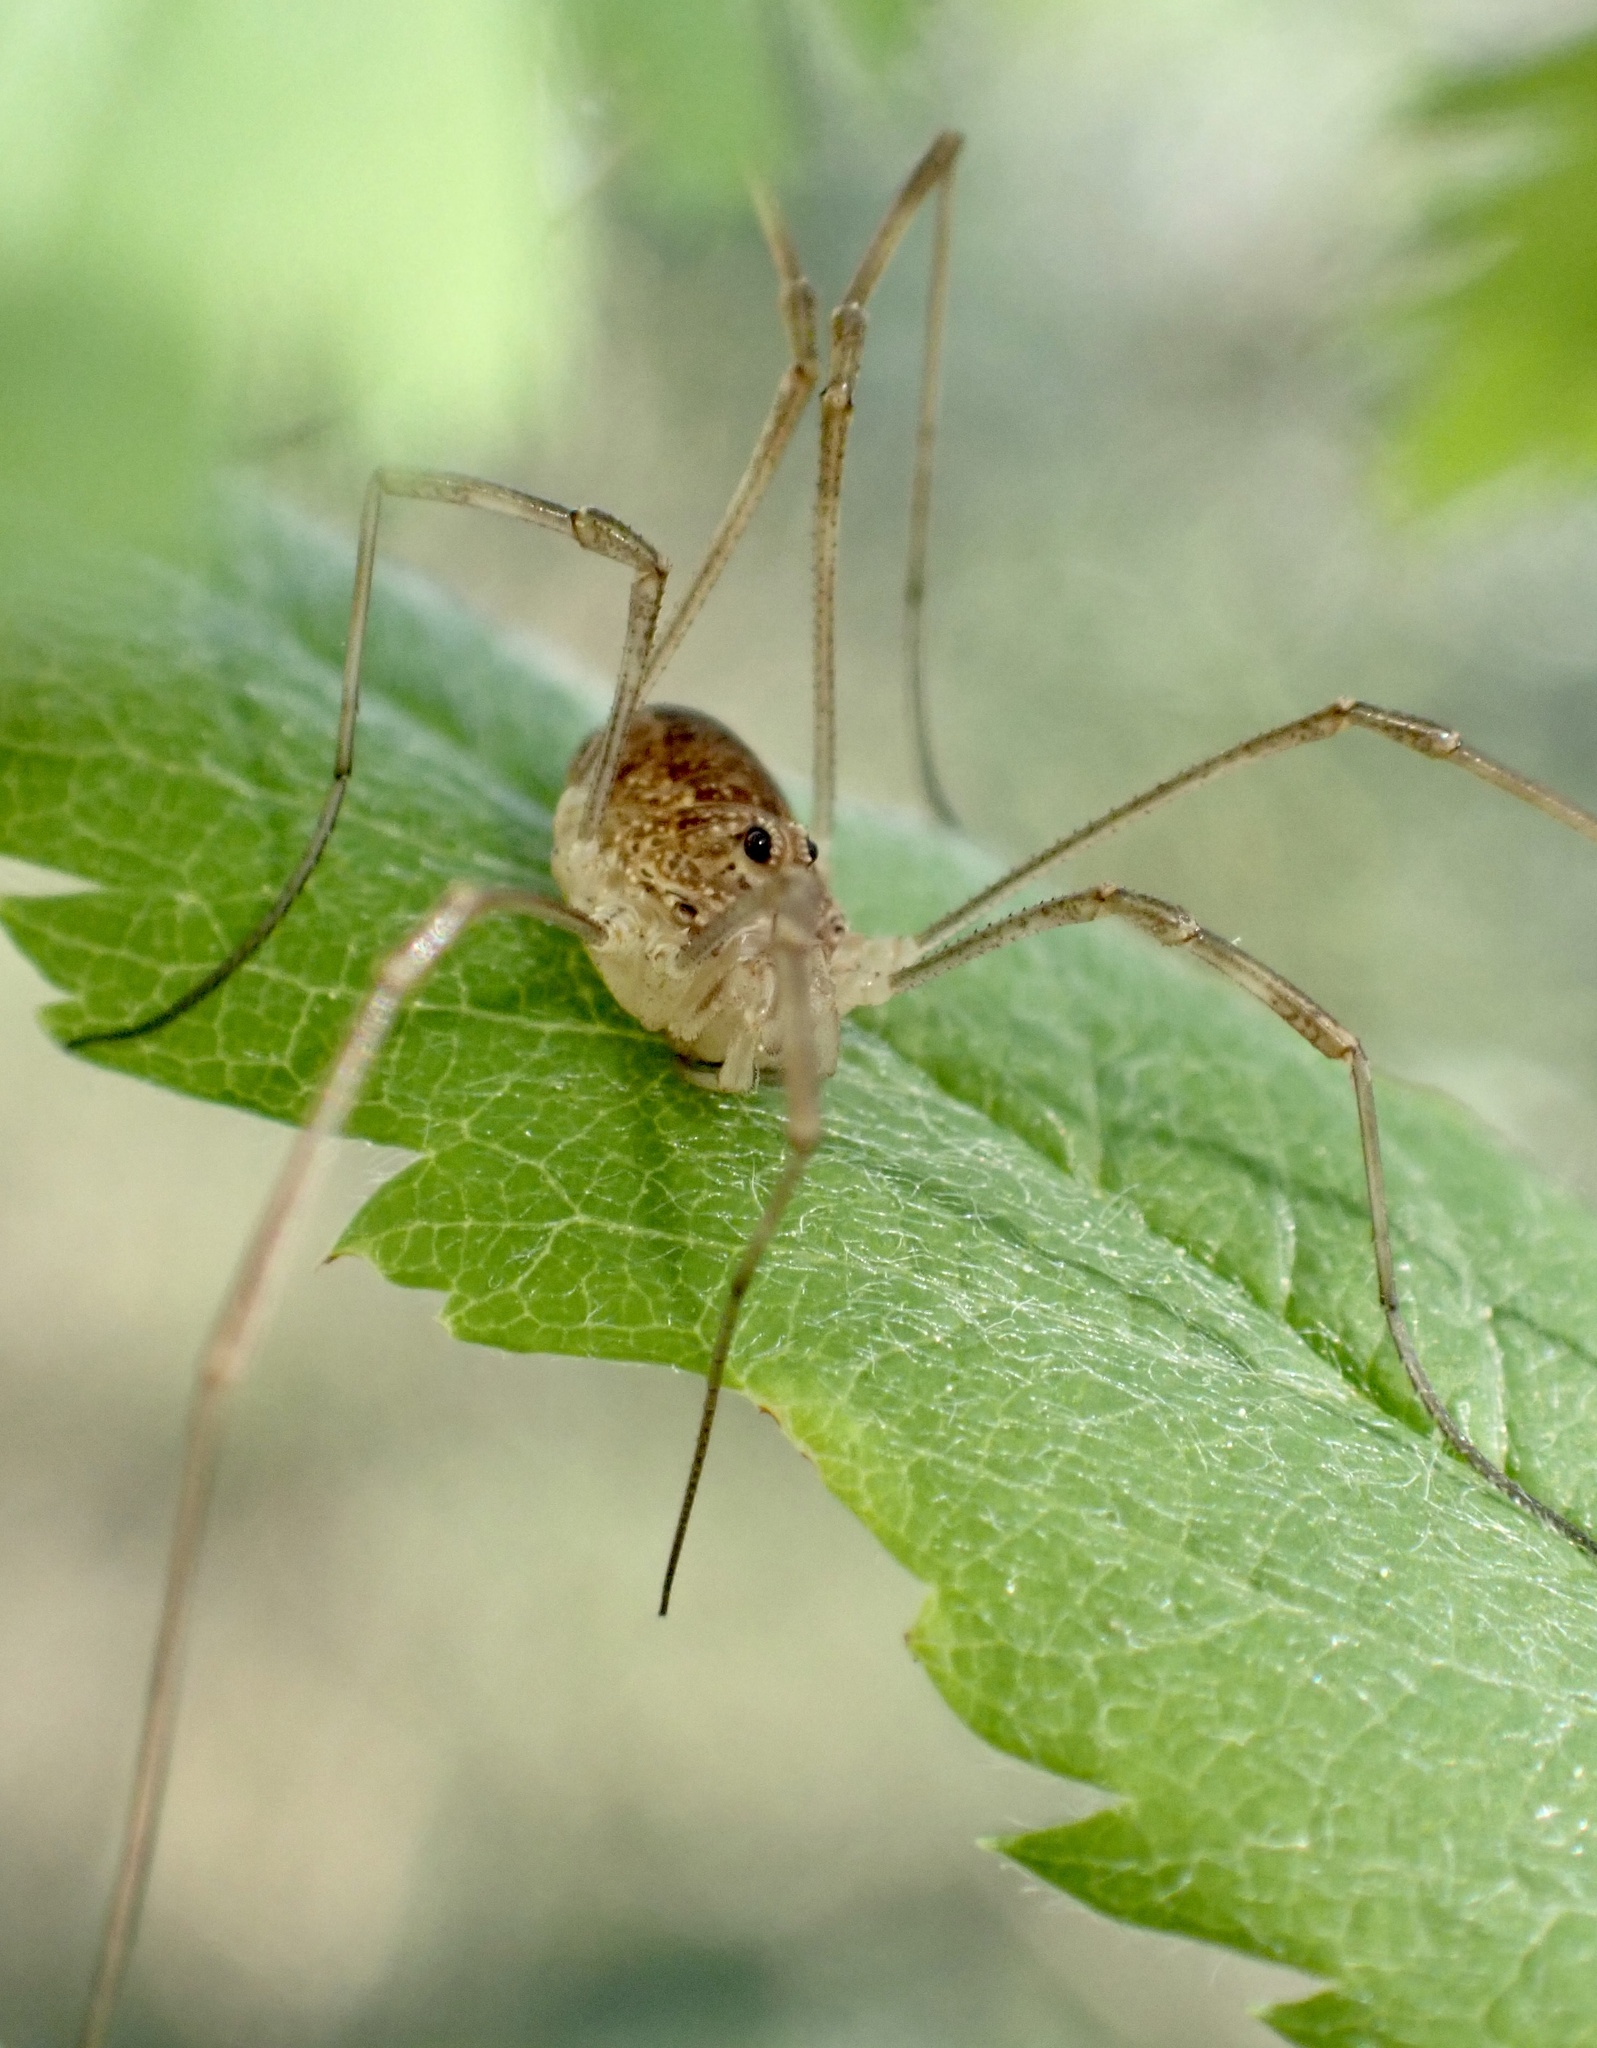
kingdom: Animalia
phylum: Arthropoda
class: Arachnida
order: Opiliones
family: Phalangiidae
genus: Rilaena
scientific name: Rilaena triangularis
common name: Spring harvestman
